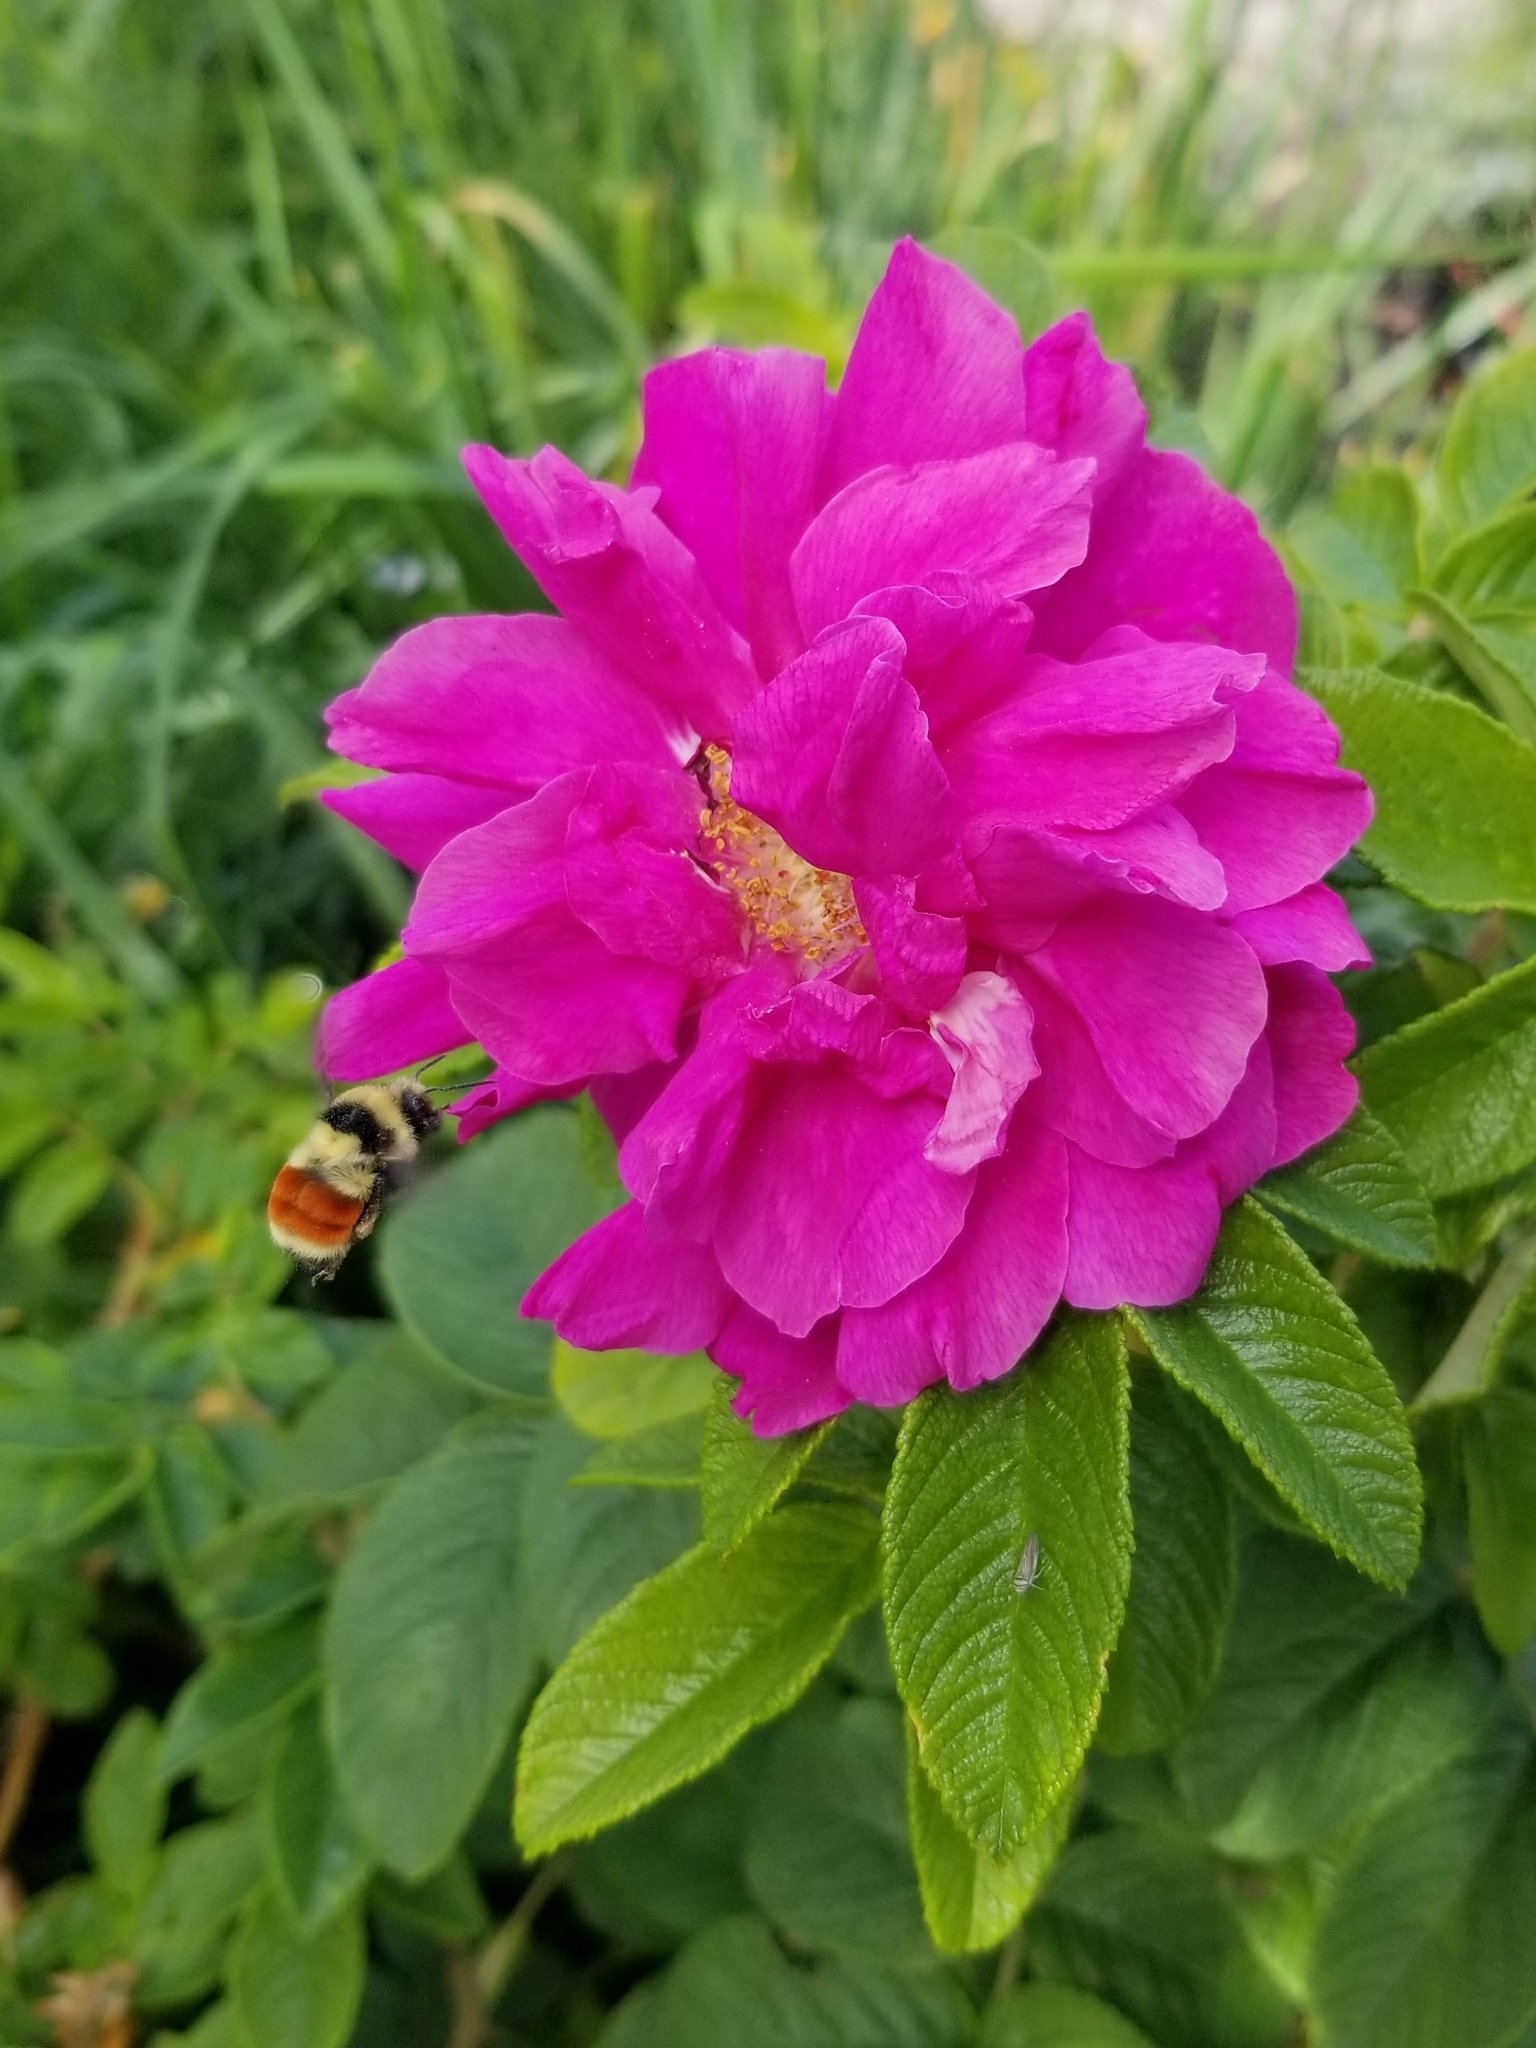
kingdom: Animalia
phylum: Arthropoda
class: Insecta
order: Hymenoptera
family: Apidae
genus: Bombus
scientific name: Bombus huntii
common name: Hunt bumble bee
